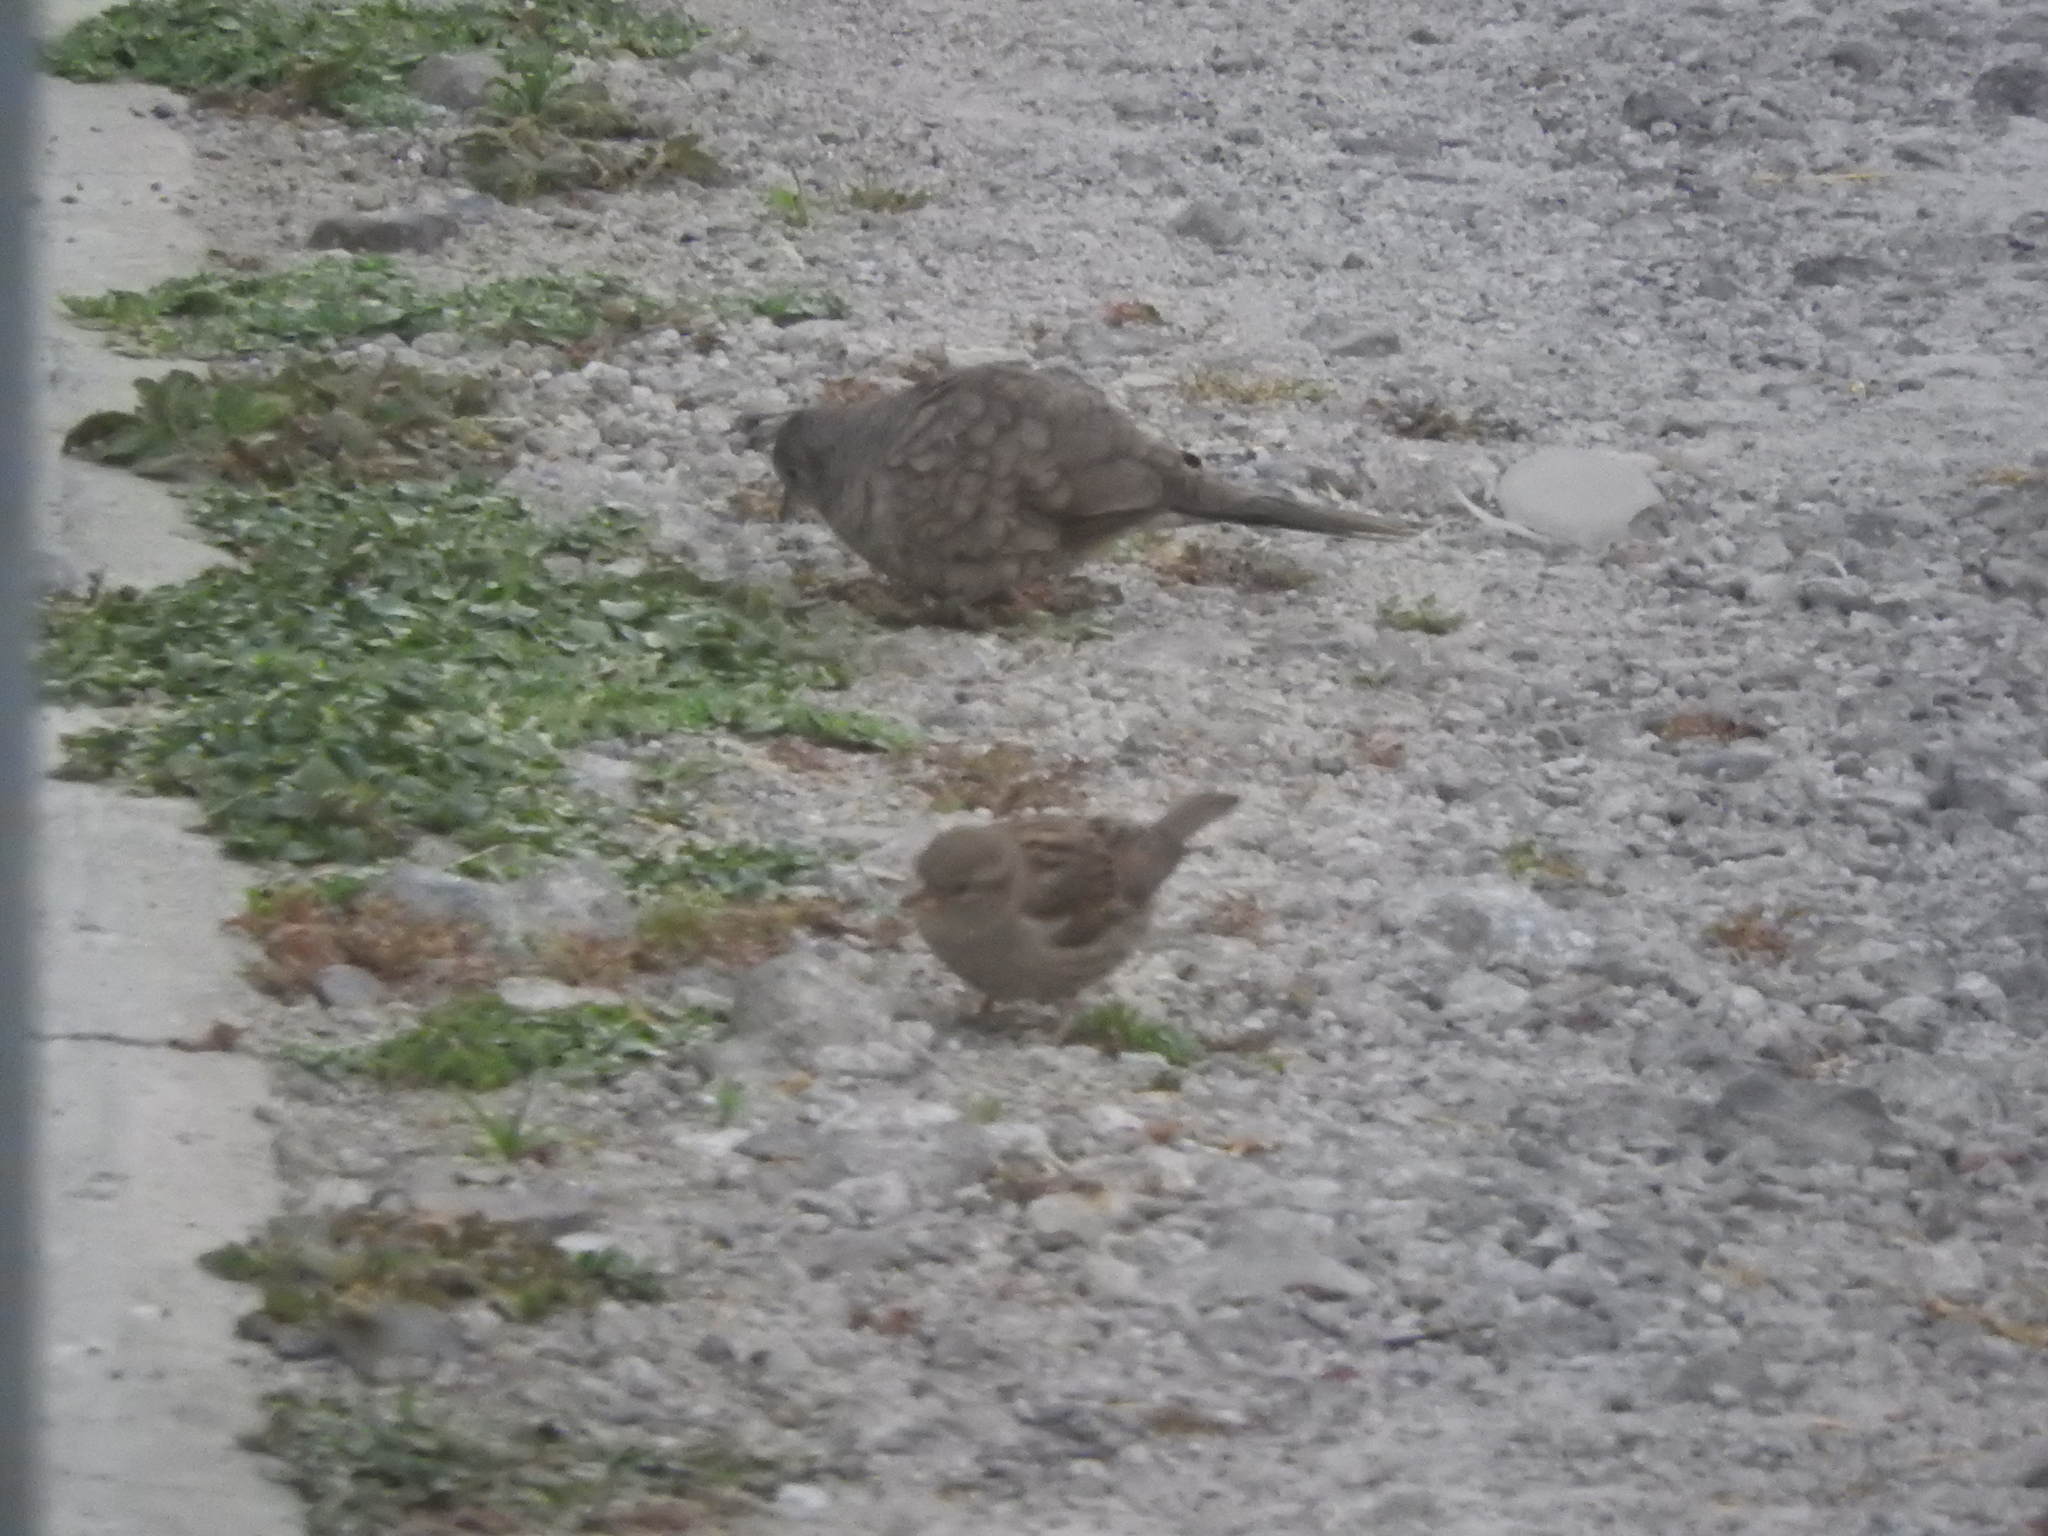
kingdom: Animalia
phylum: Chordata
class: Aves
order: Passeriformes
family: Passeridae
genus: Passer
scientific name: Passer domesticus
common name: House sparrow
